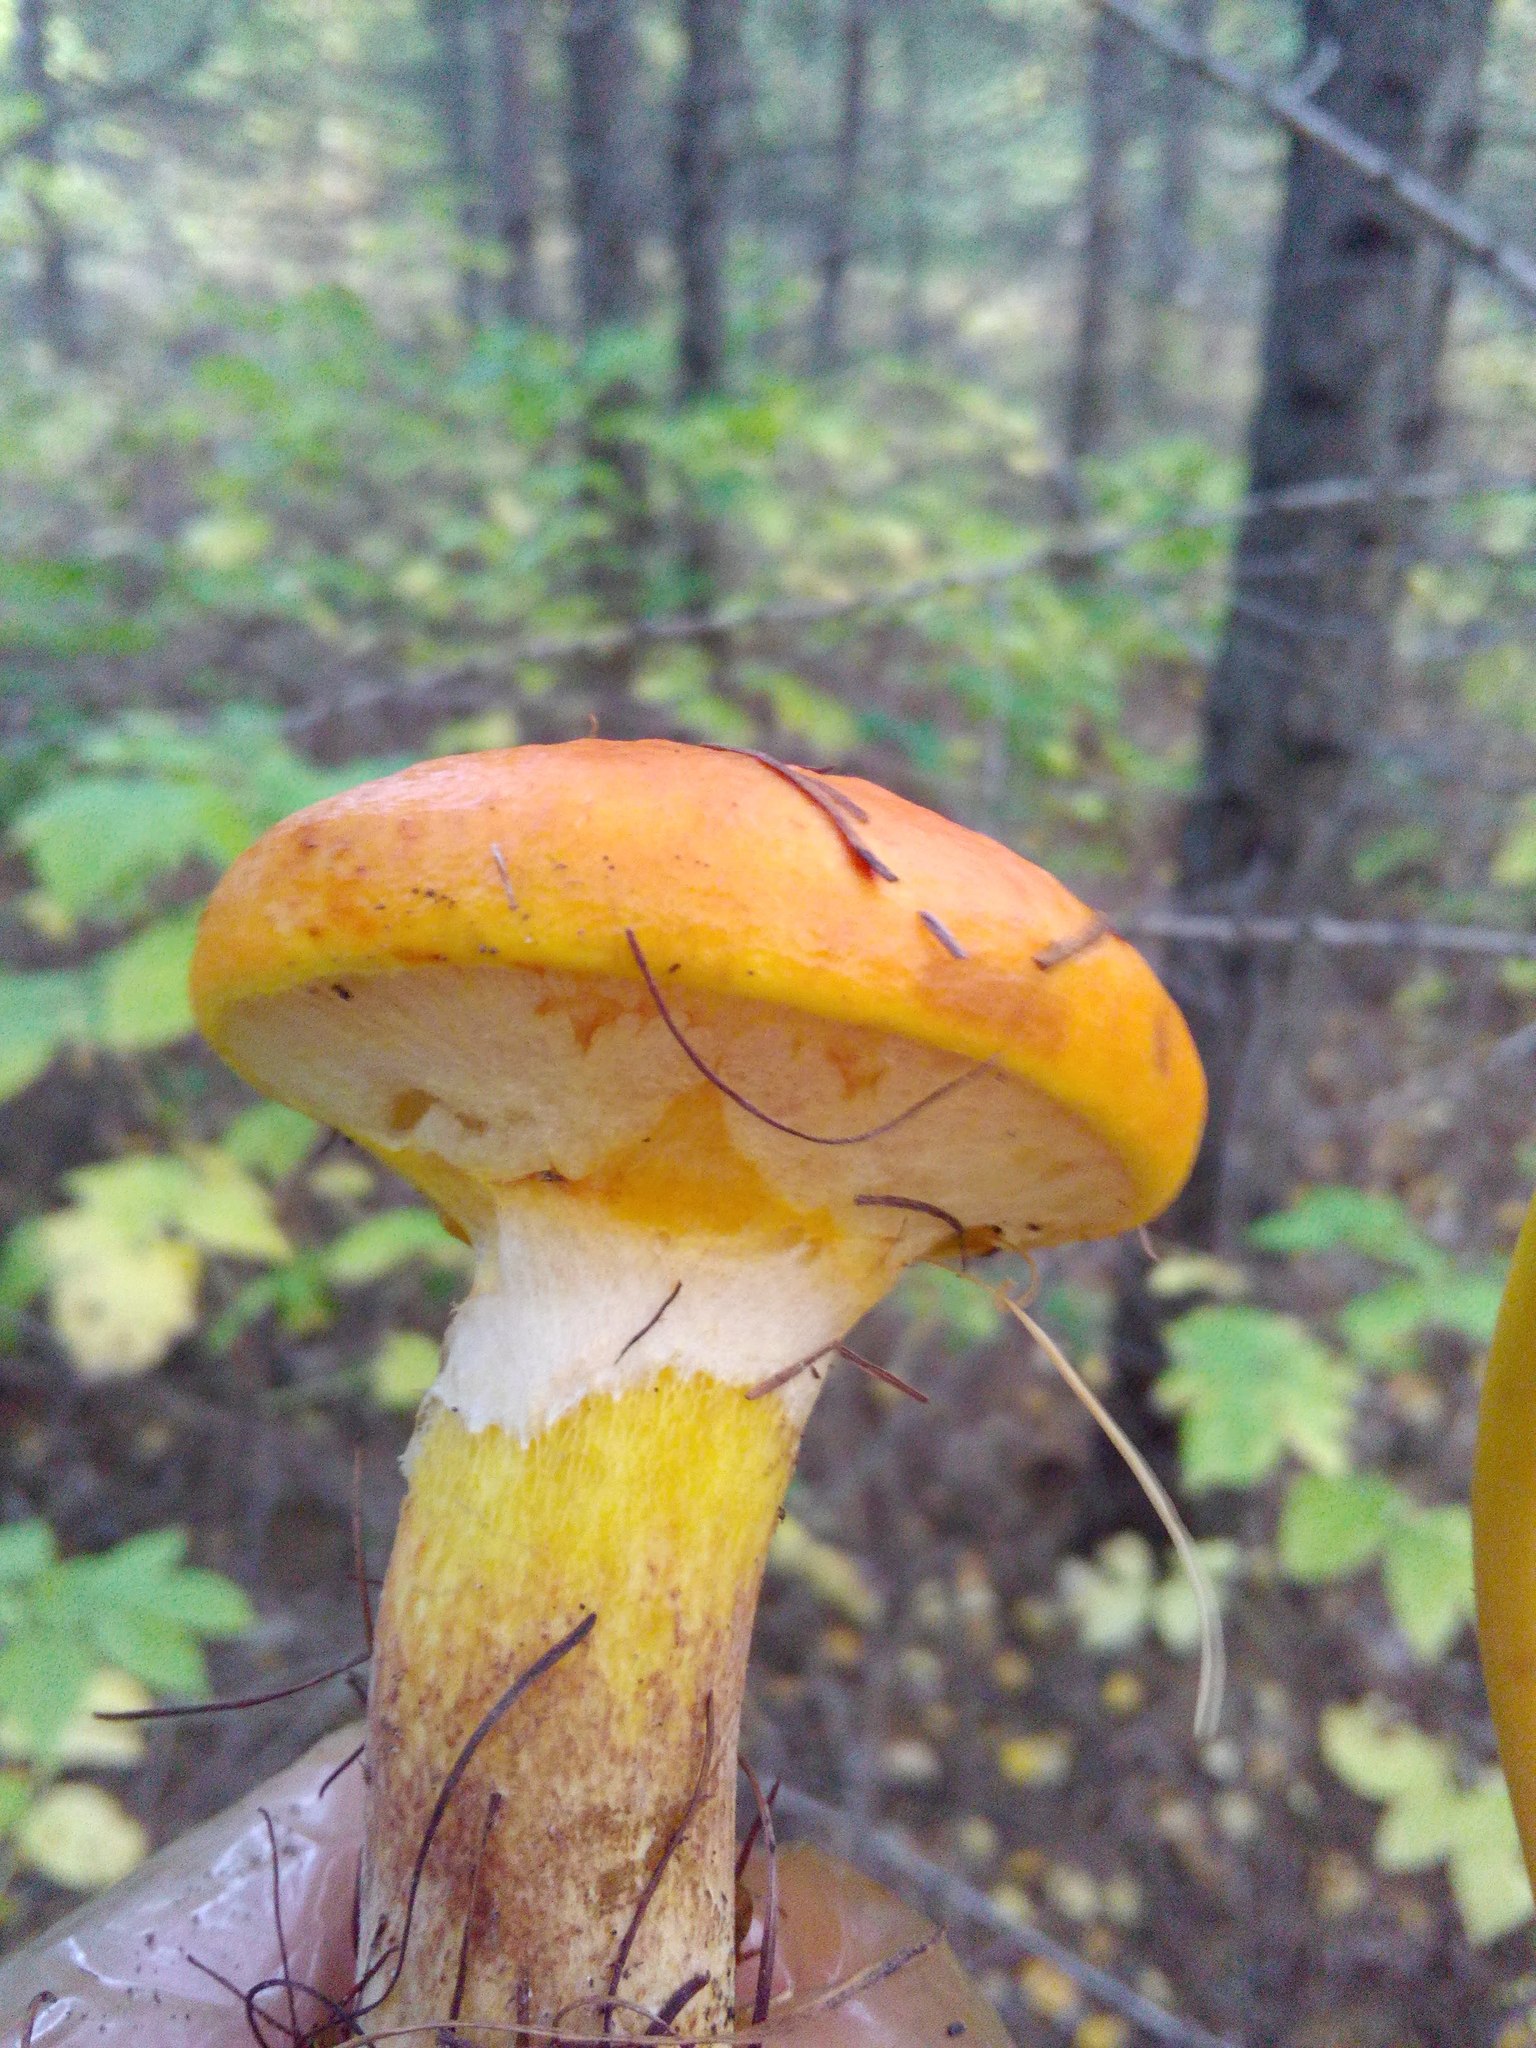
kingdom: Fungi
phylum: Basidiomycota
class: Agaricomycetes
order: Boletales
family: Suillaceae
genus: Suillus
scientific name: Suillus grevillei
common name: Larch bolete
